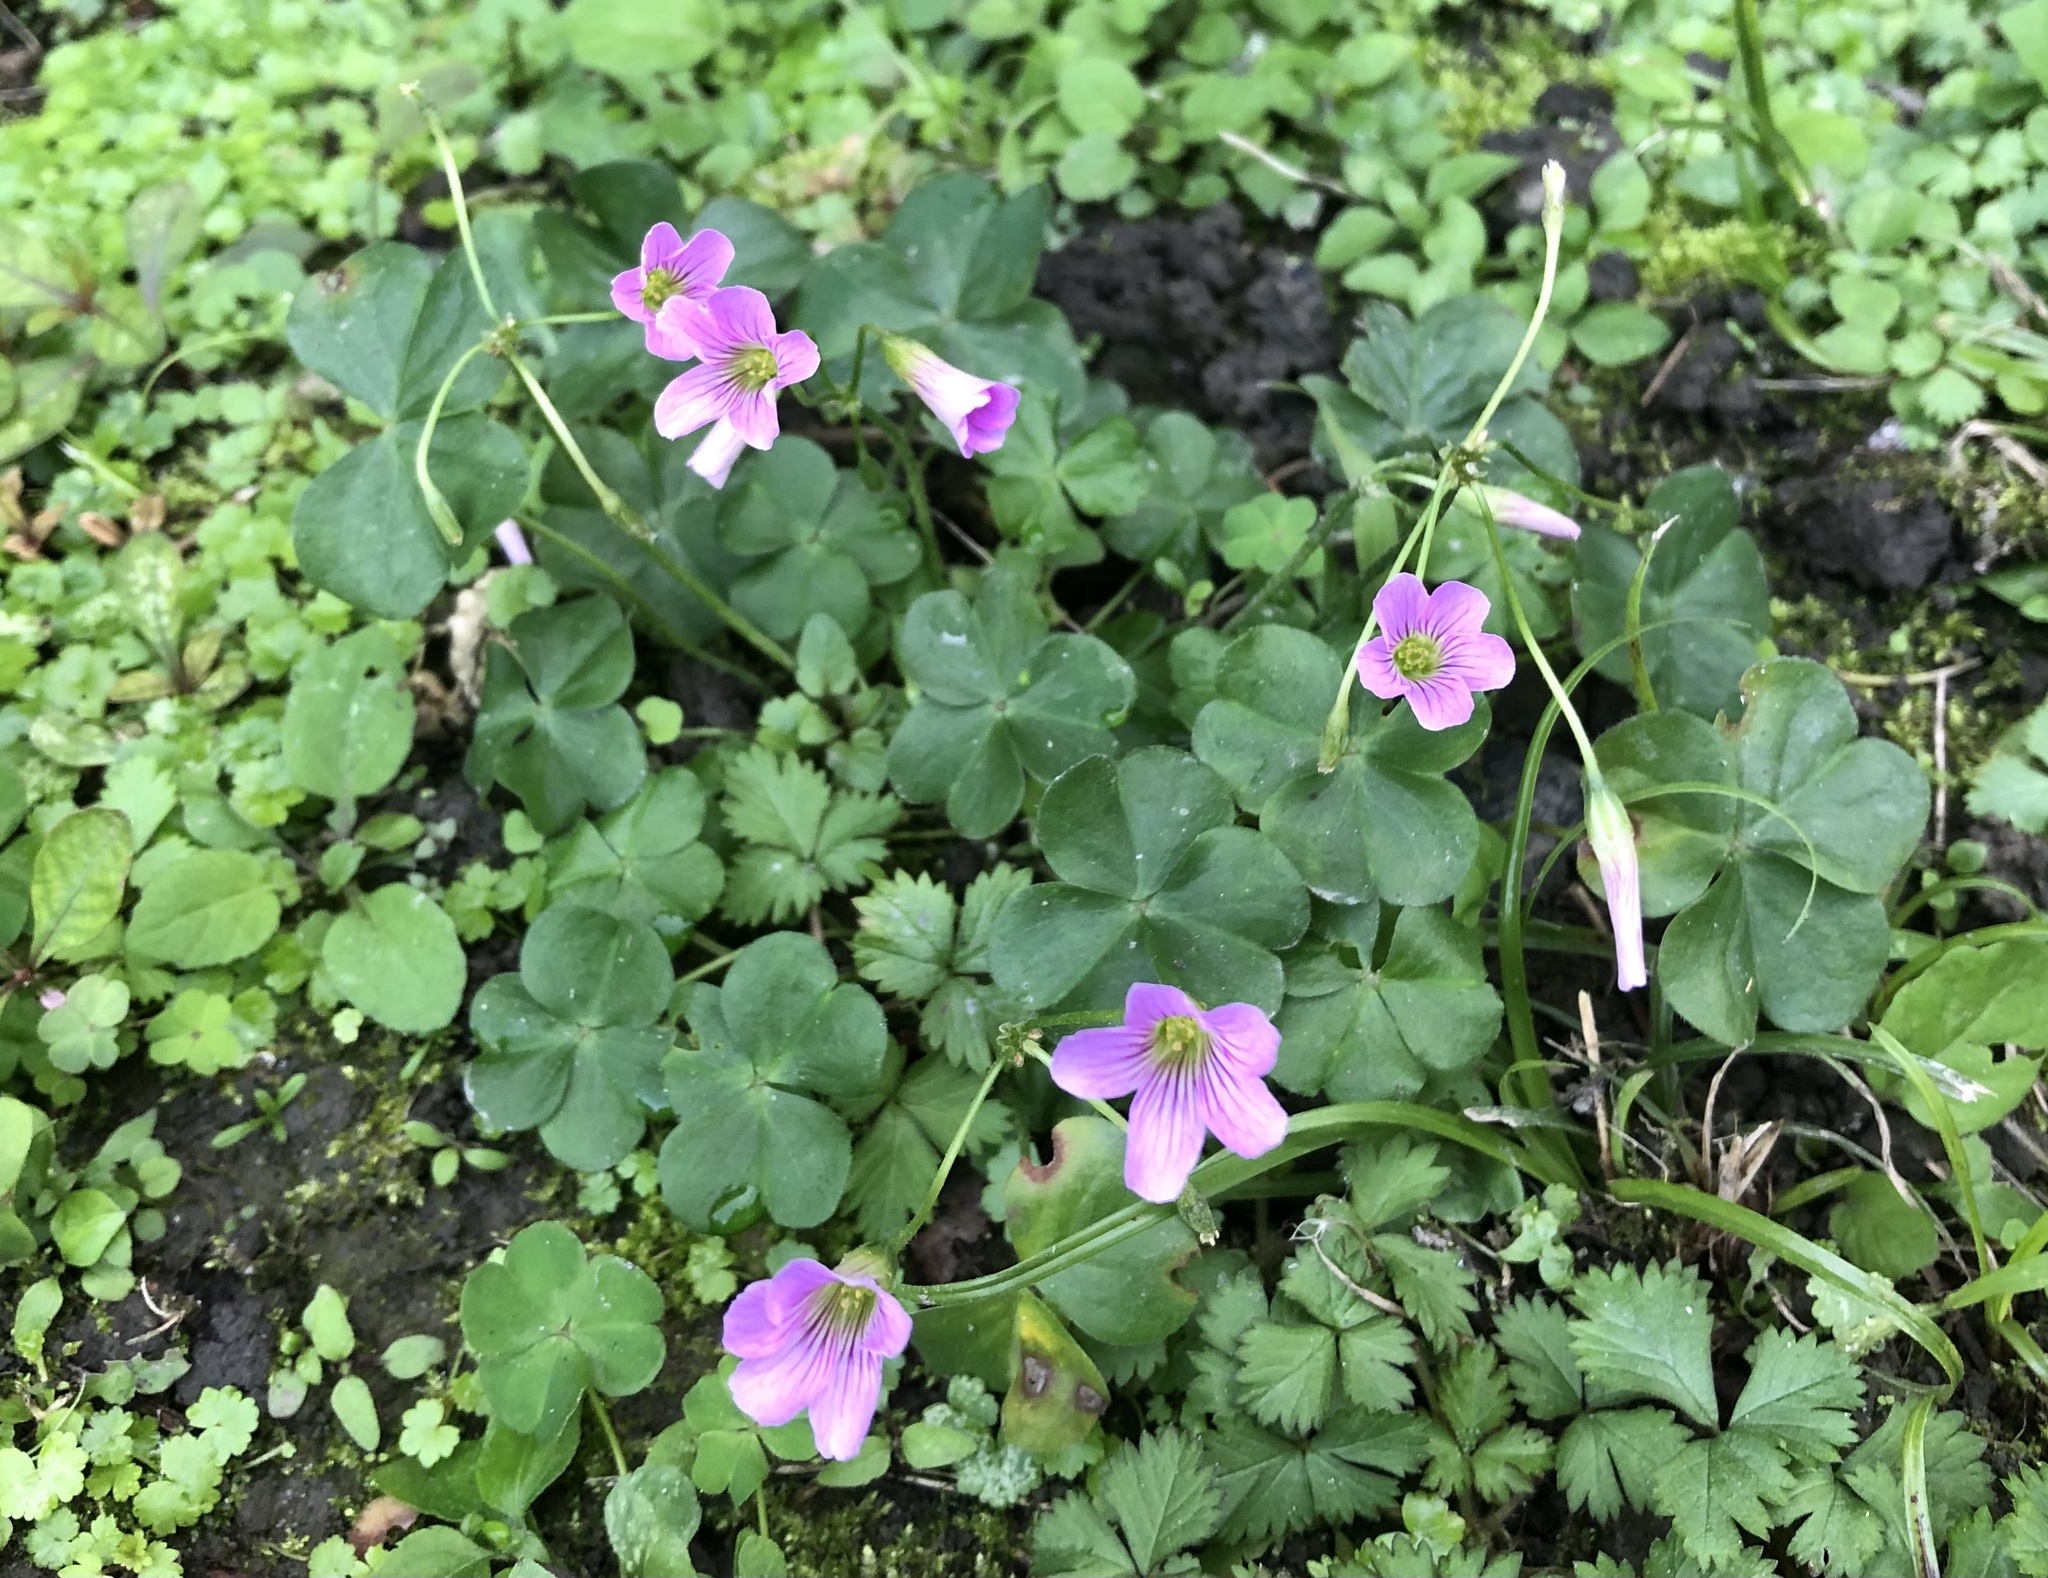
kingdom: Plantae
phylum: Tracheophyta
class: Magnoliopsida
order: Oxalidales
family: Oxalidaceae
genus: Oxalis
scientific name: Oxalis debilis
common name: Large-flowered pink-sorrel
